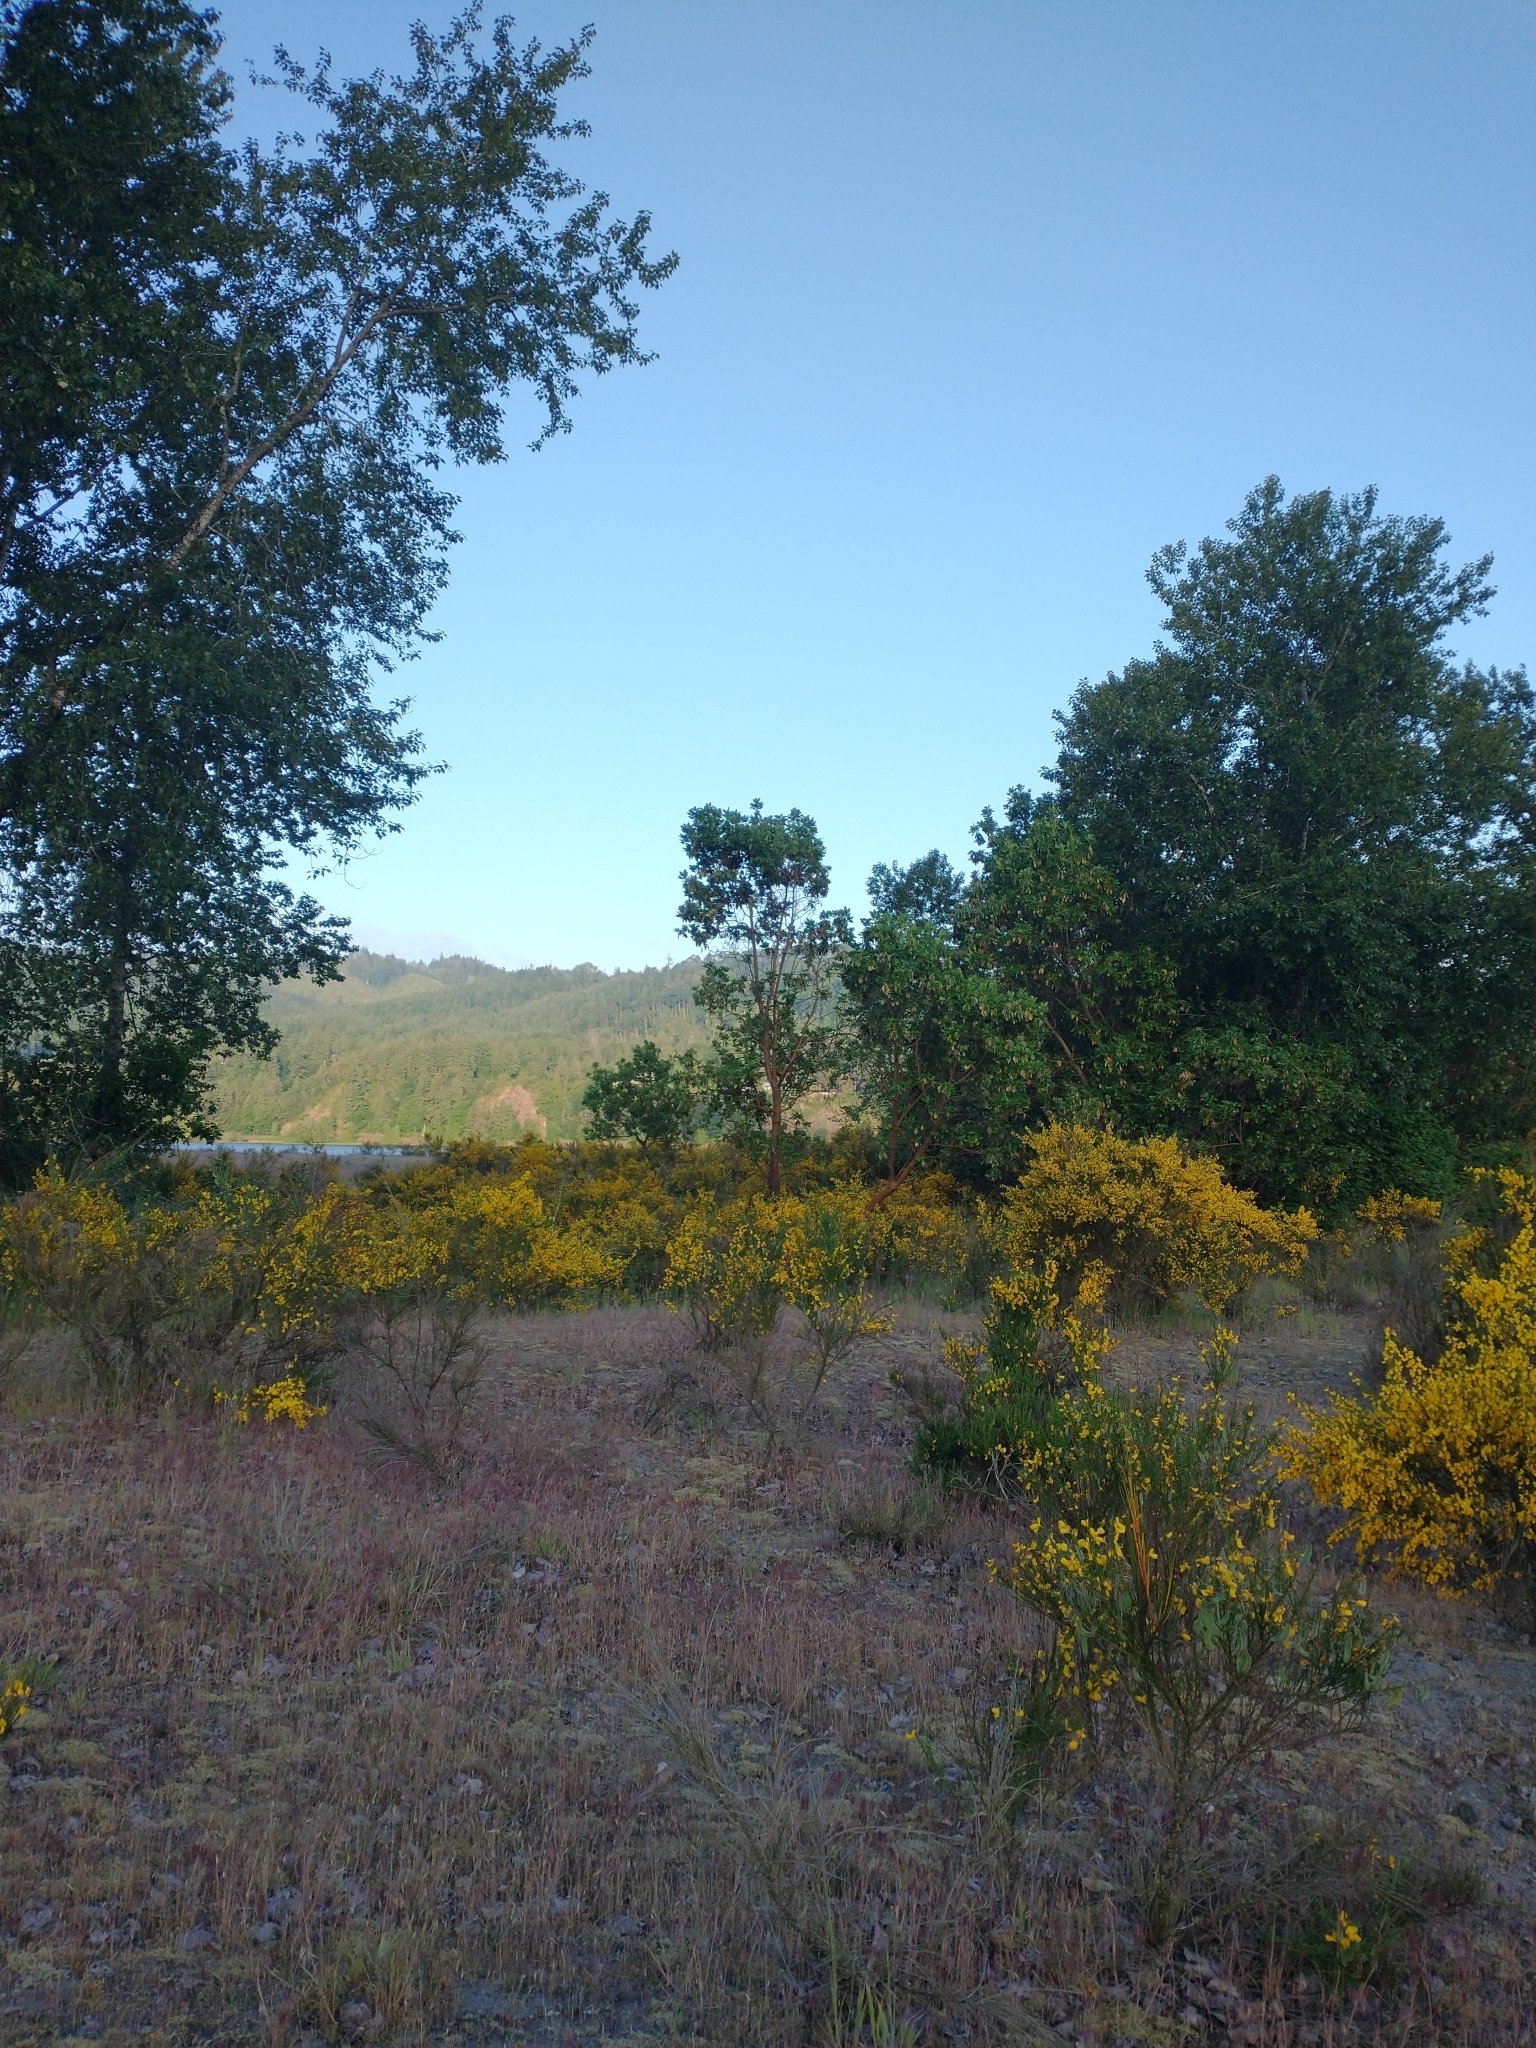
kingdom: Plantae
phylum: Tracheophyta
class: Magnoliopsida
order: Fabales
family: Fabaceae
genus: Cytisus
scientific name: Cytisus scoparius
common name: Scotch broom
